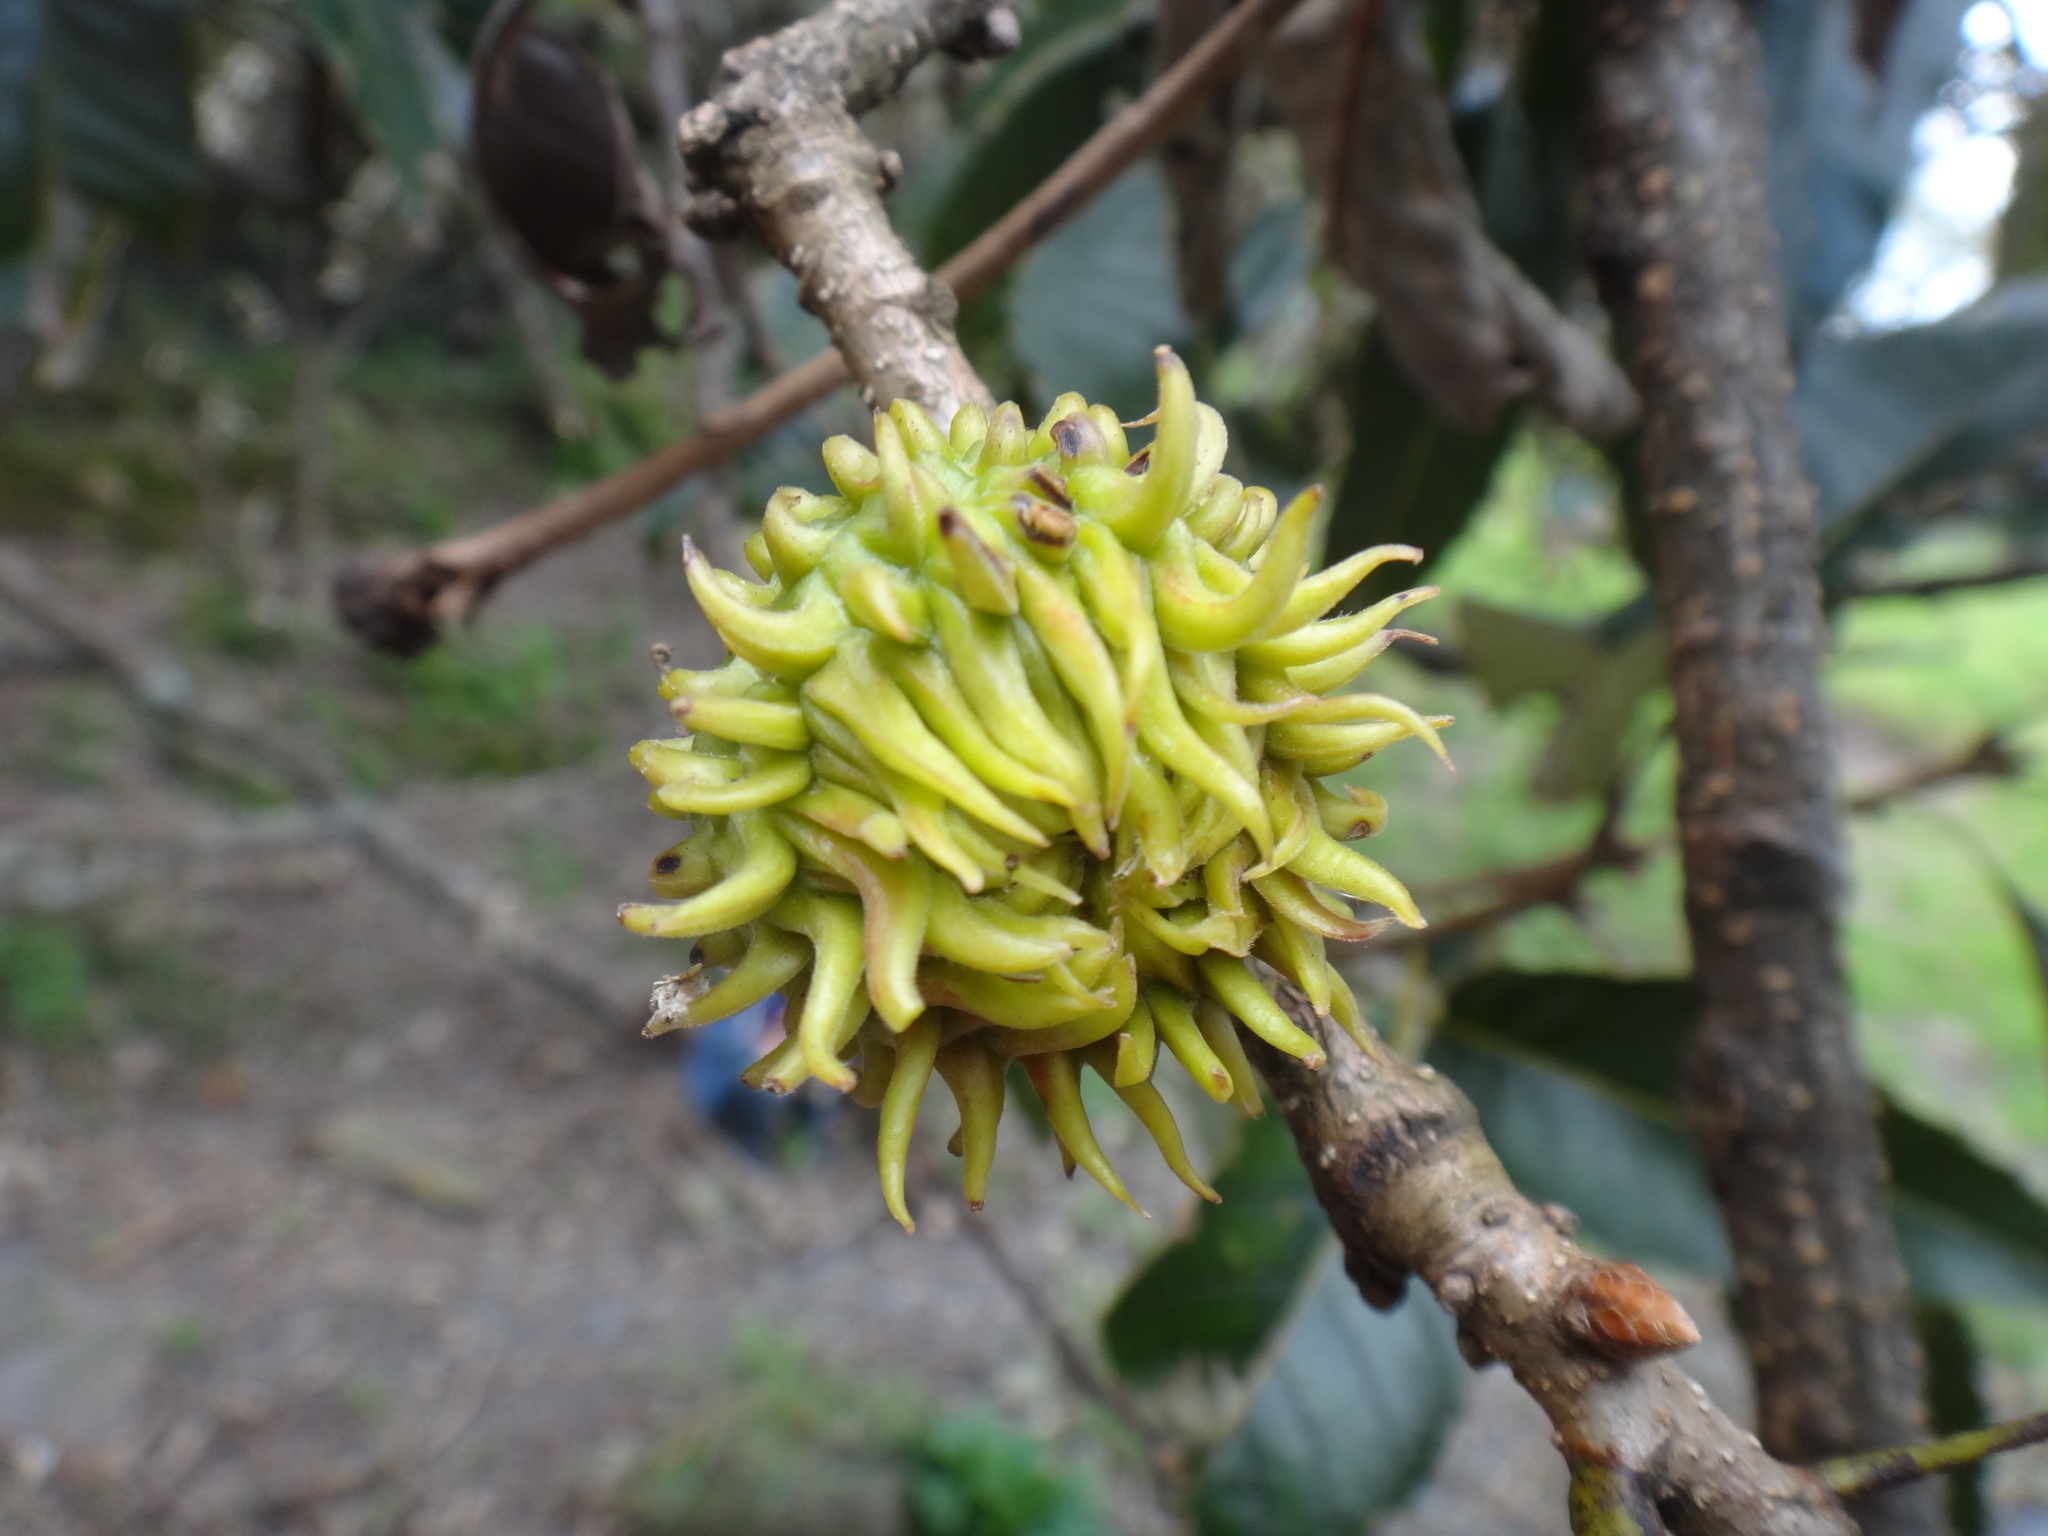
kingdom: Plantae
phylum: Tracheophyta
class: Magnoliopsida
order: Fagales
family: Fagaceae
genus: Quercus
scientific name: Quercus variabilis
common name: Chinese cork oak
